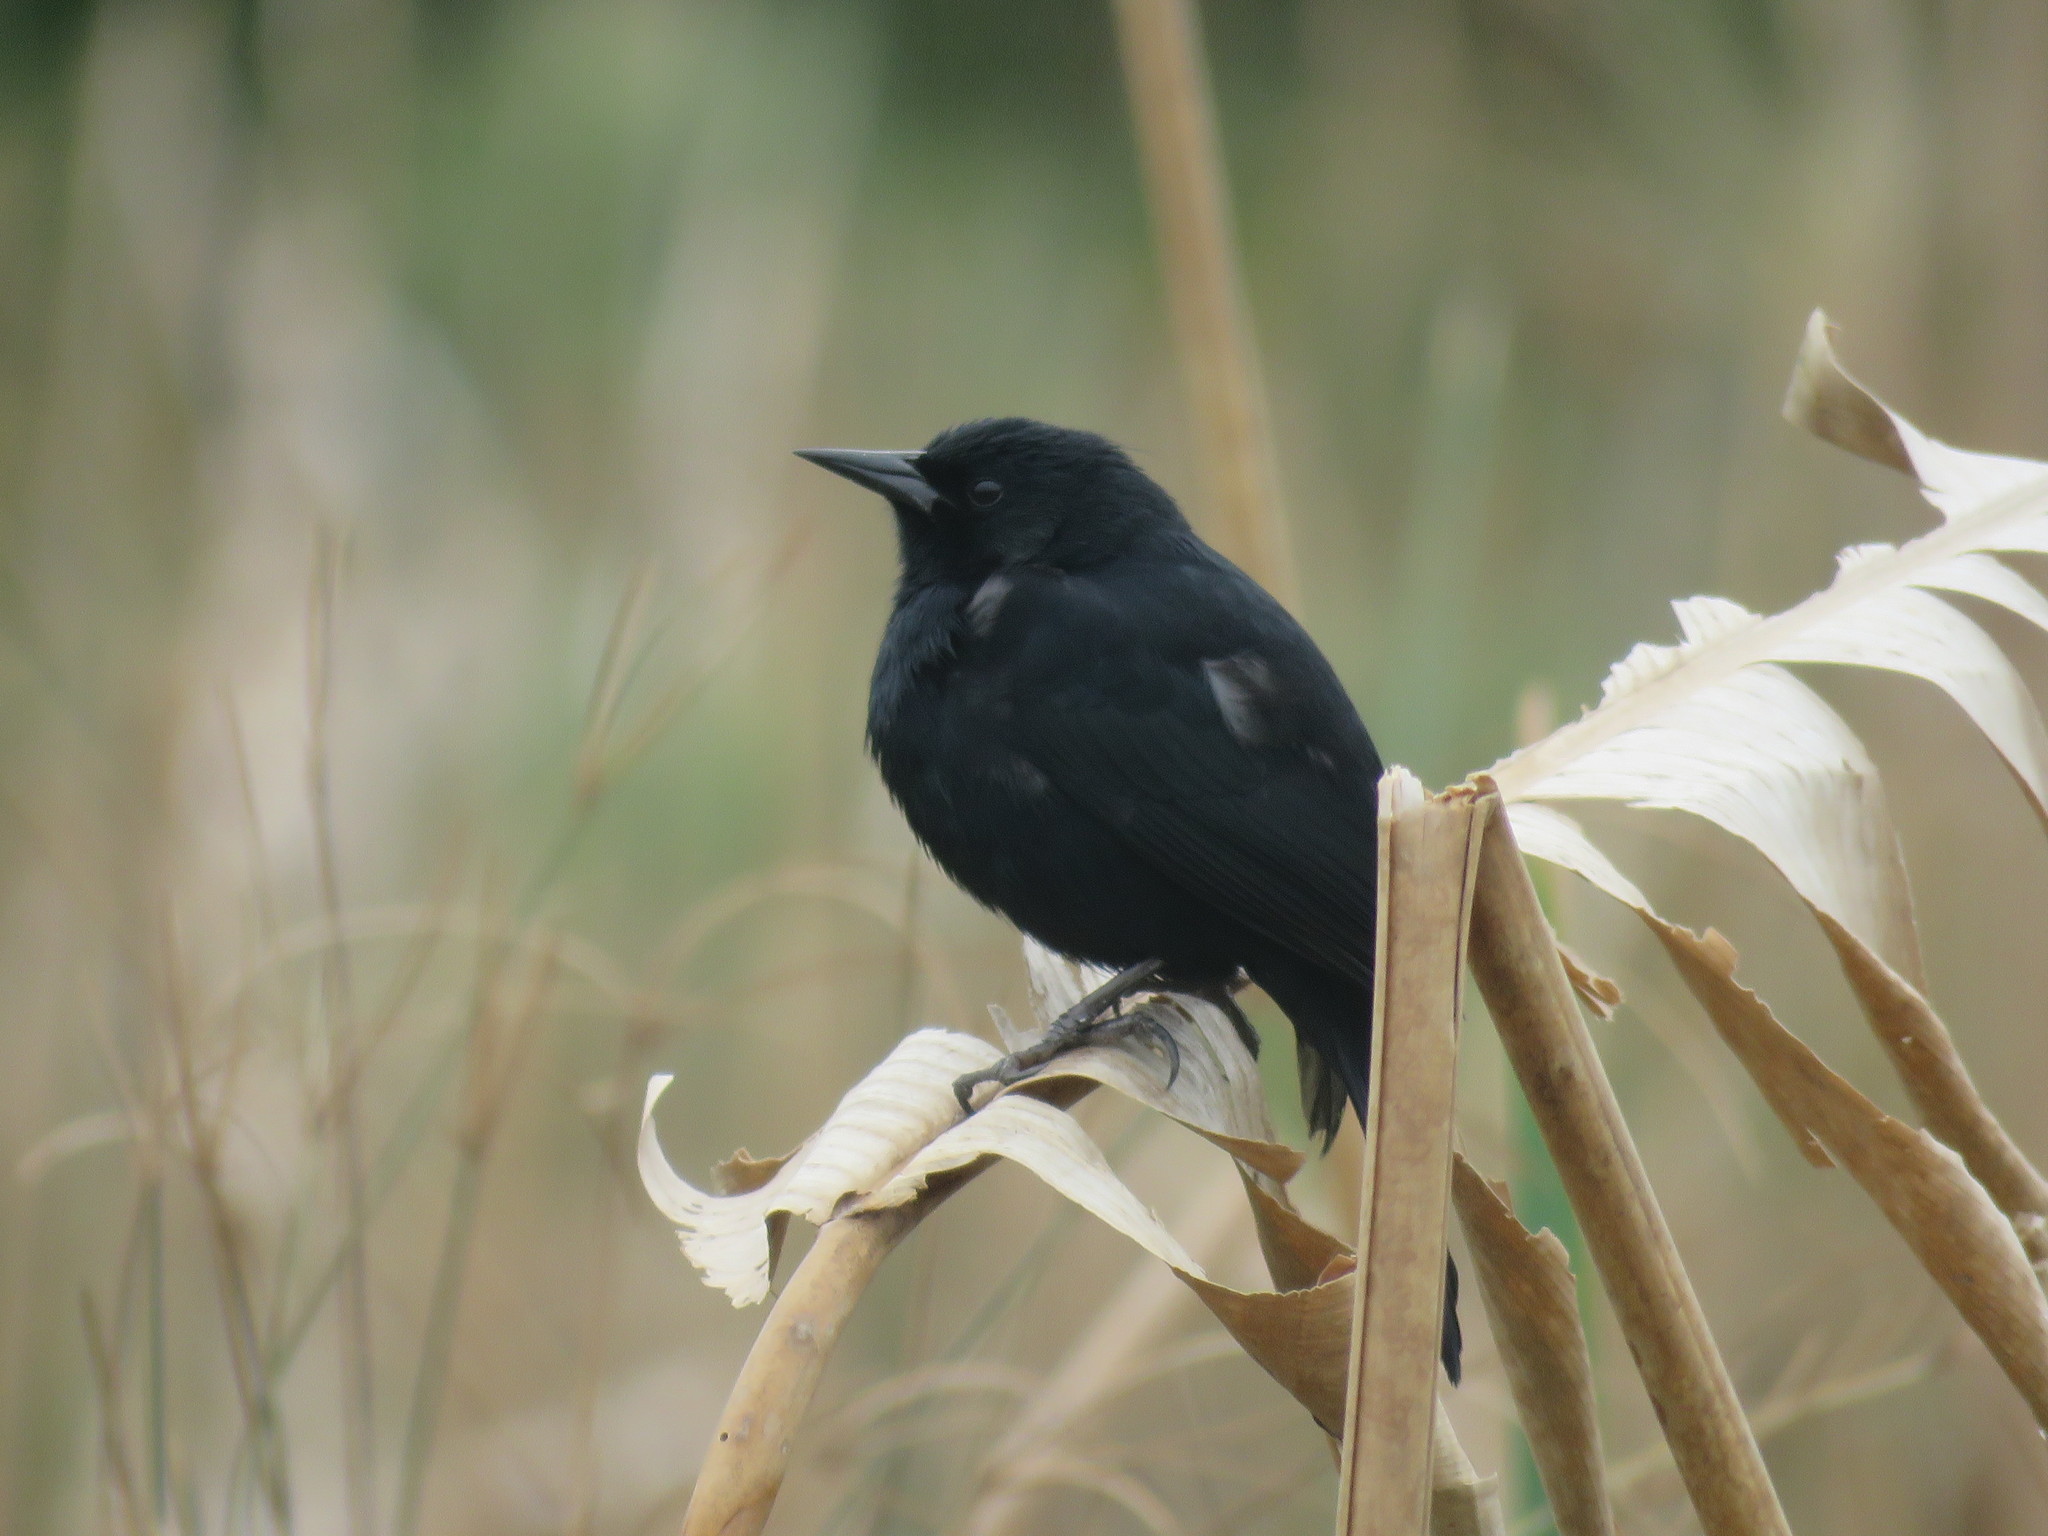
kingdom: Animalia
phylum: Chordata
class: Aves
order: Passeriformes
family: Icteridae
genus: Agelasticus
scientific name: Agelasticus cyanopus
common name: Unicolored blackbird
